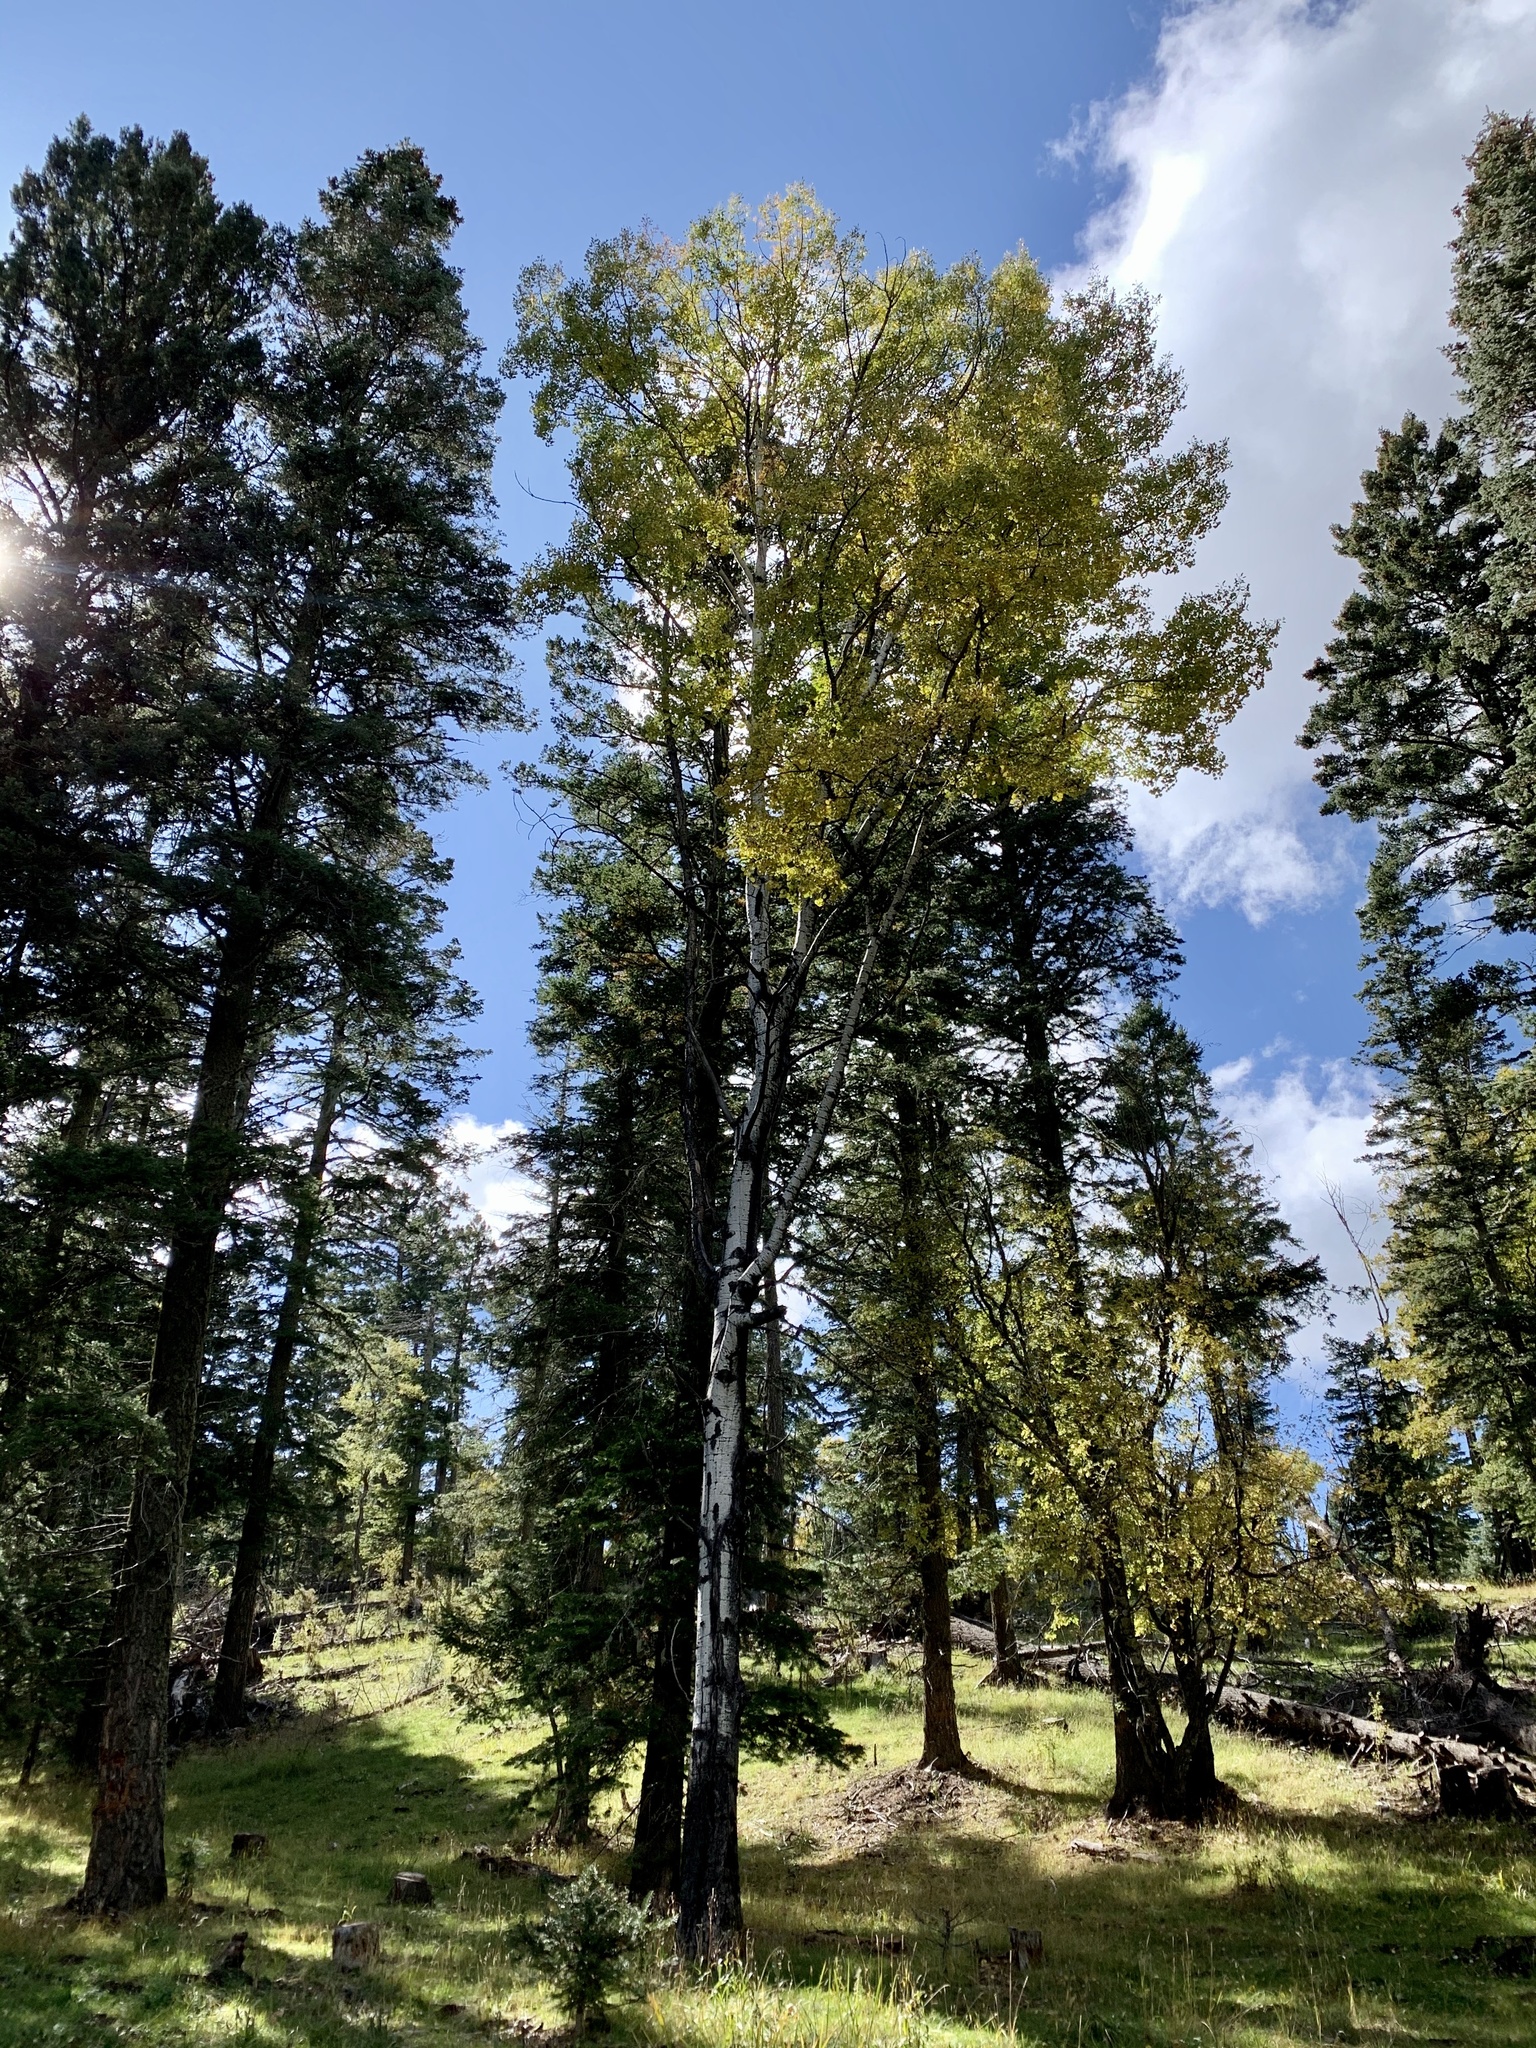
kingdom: Plantae
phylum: Tracheophyta
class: Magnoliopsida
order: Malpighiales
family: Salicaceae
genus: Populus
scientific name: Populus tremuloides
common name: Quaking aspen
